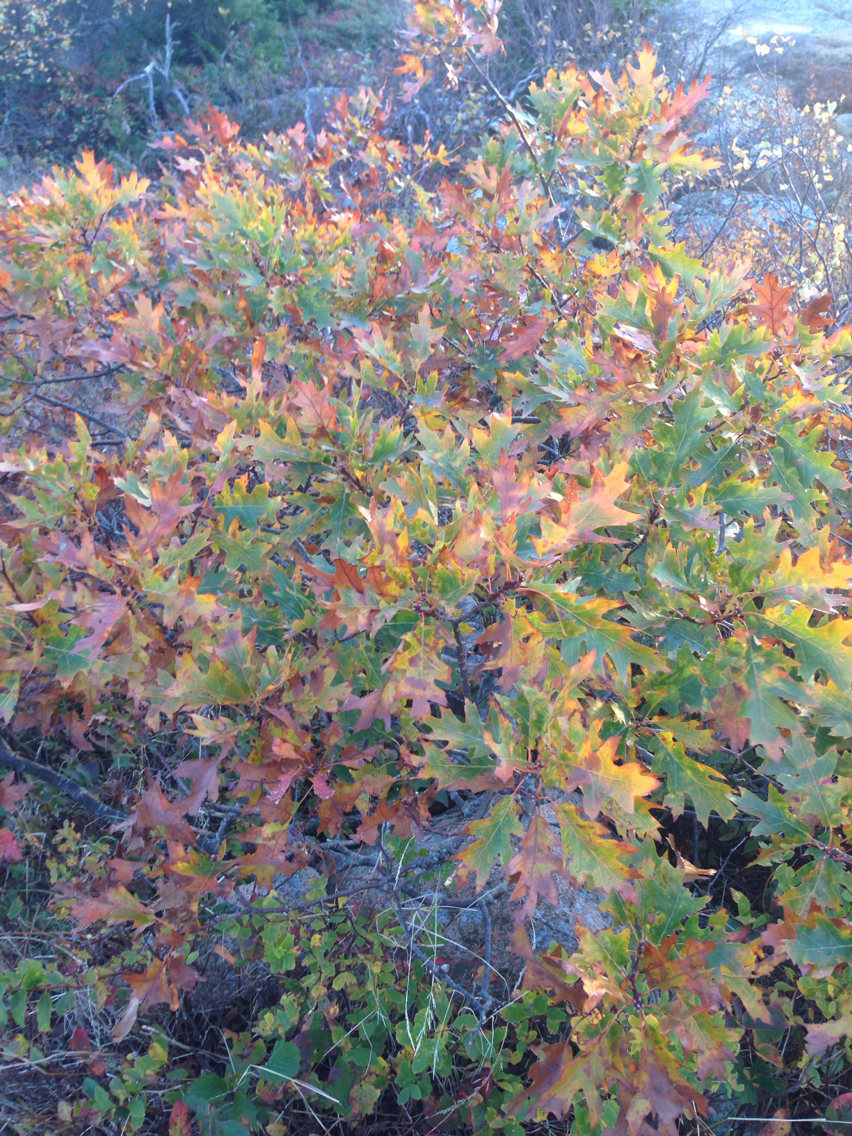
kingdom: Plantae
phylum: Tracheophyta
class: Magnoliopsida
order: Fagales
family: Fagaceae
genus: Quercus
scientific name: Quercus rubra
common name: Red oak
